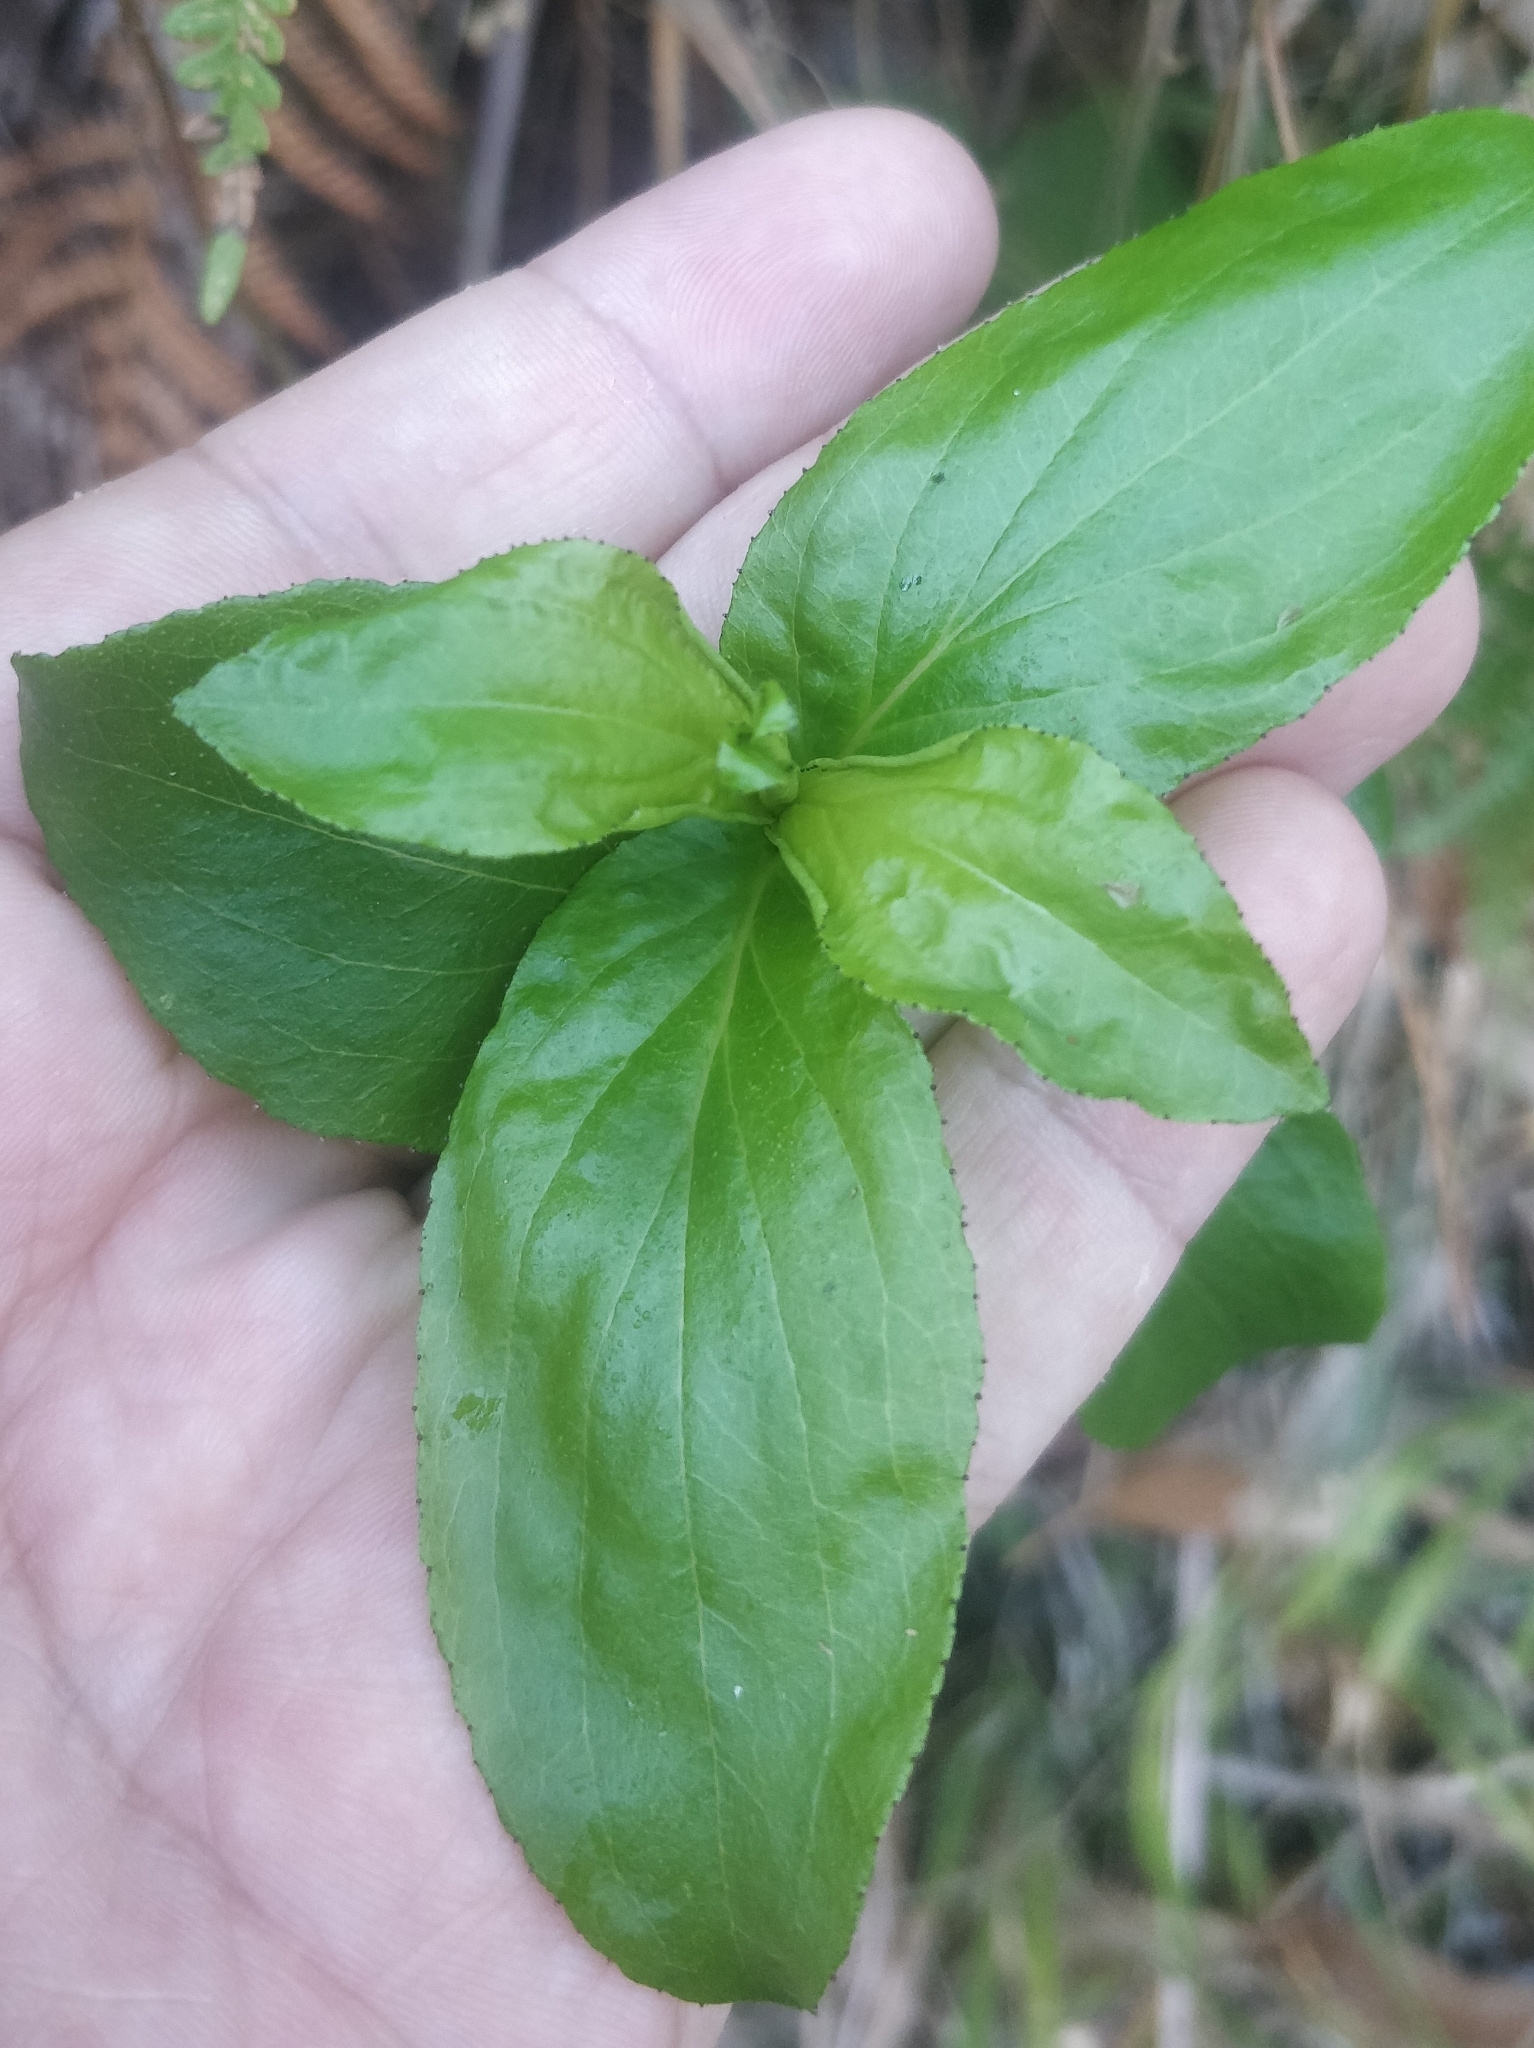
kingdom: Plantae
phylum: Tracheophyta
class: Magnoliopsida
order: Malpighiales
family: Hypericaceae
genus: Hypericum
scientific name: Hypericum glandulosum
